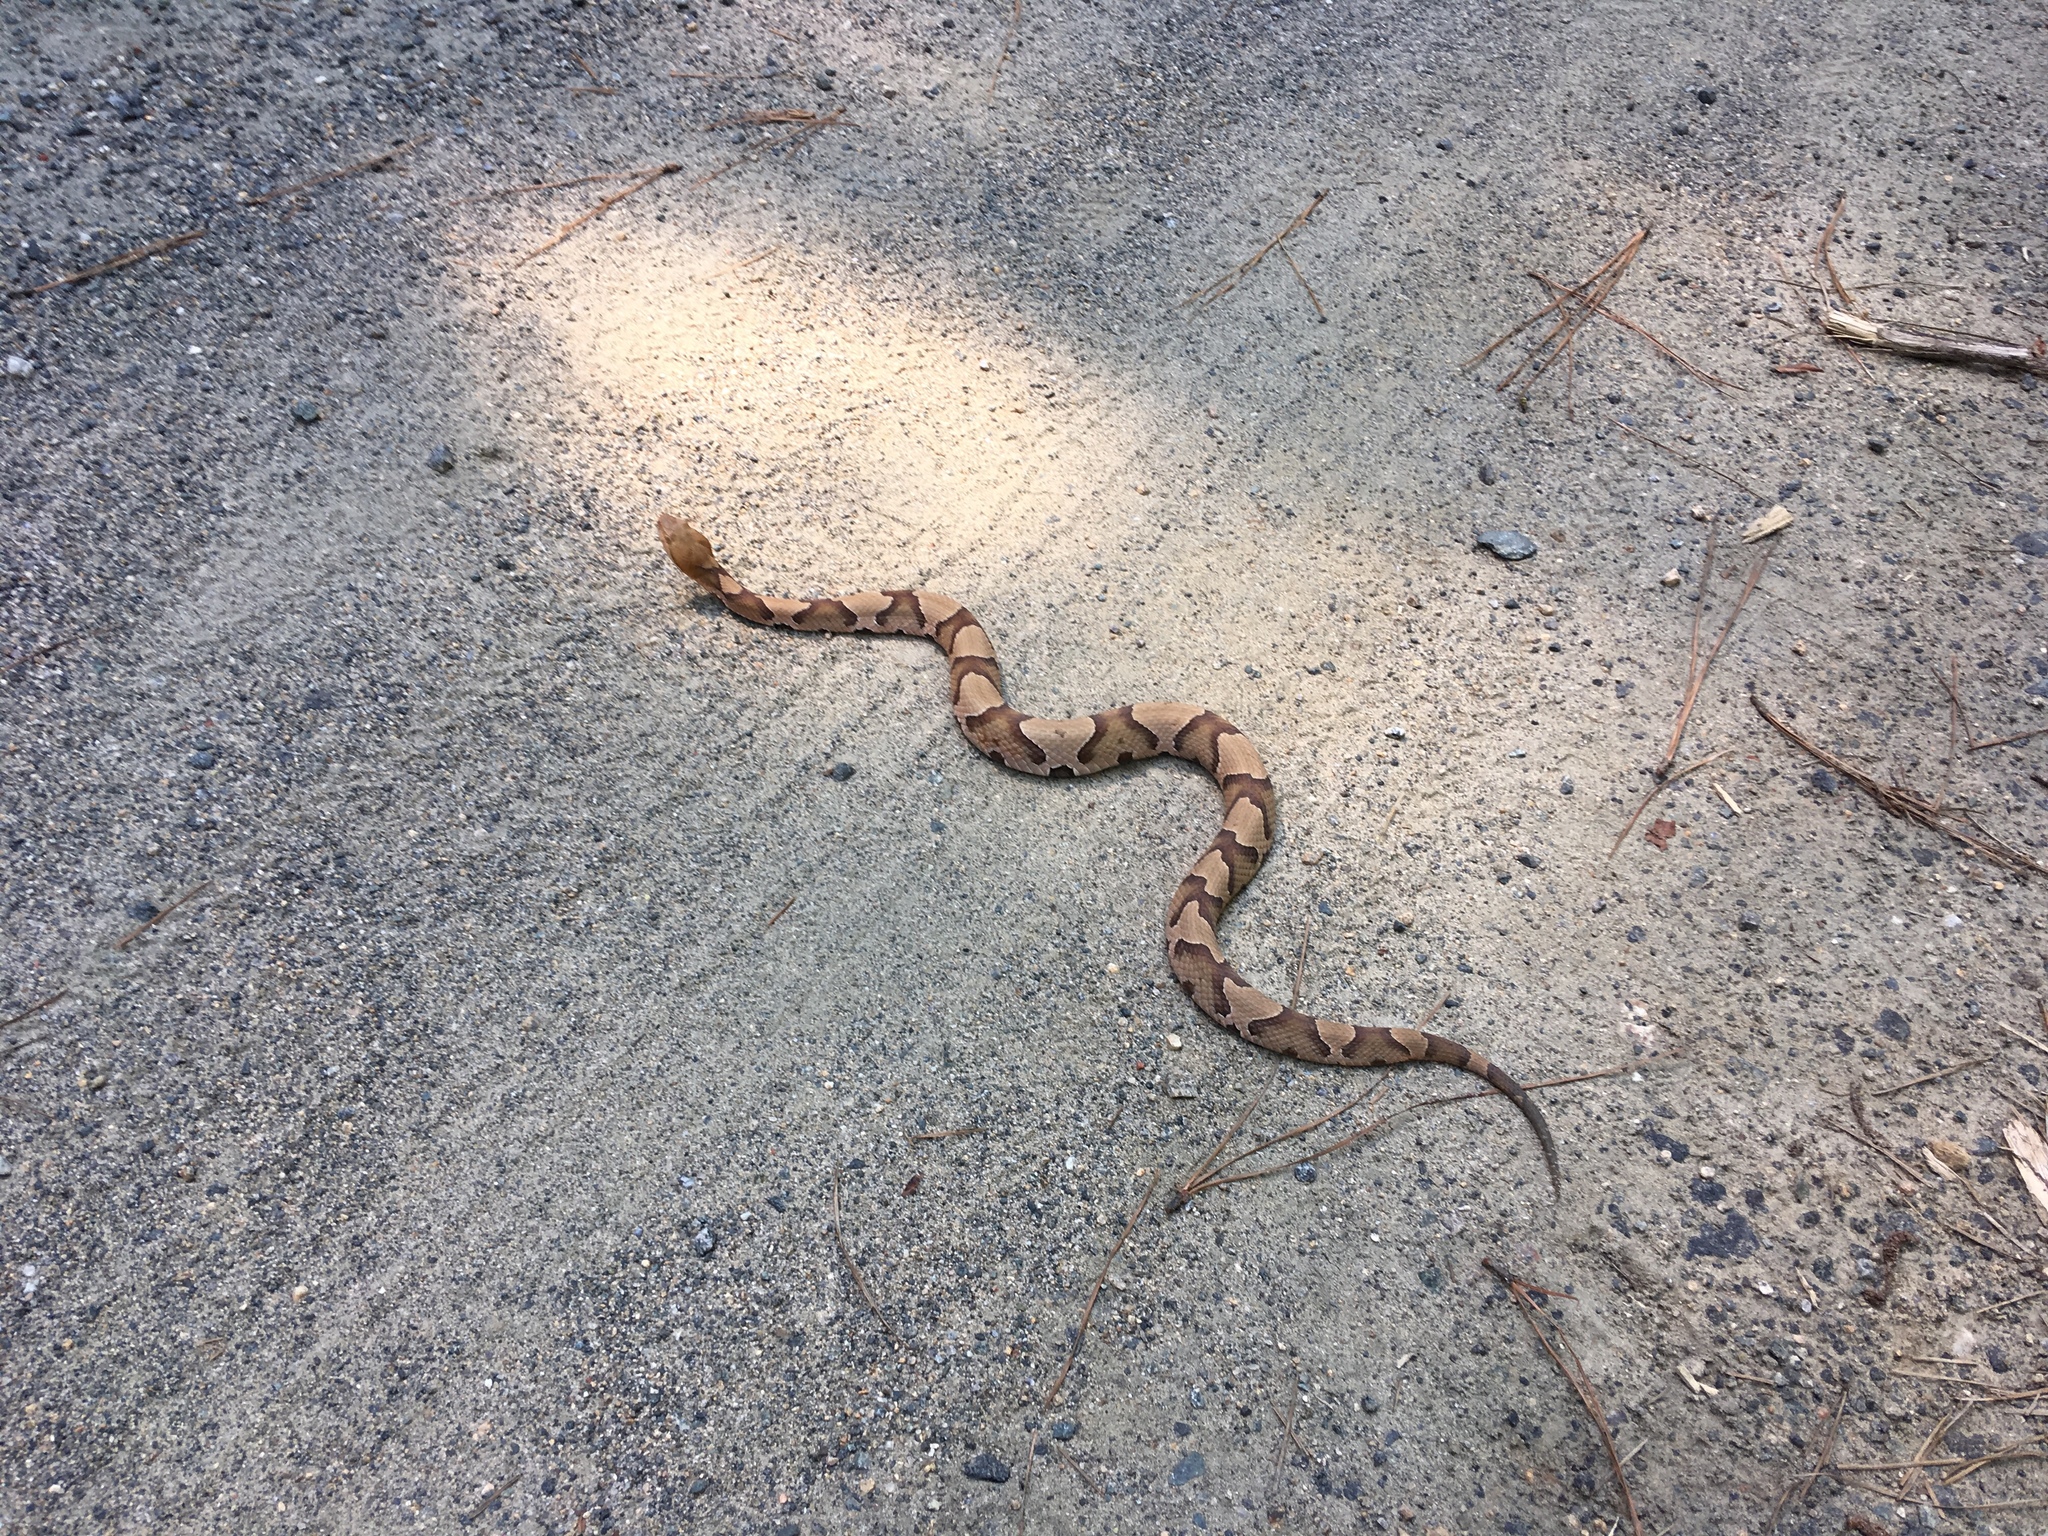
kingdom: Animalia
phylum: Chordata
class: Squamata
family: Viperidae
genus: Agkistrodon
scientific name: Agkistrodon contortrix
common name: Northern copperhead
